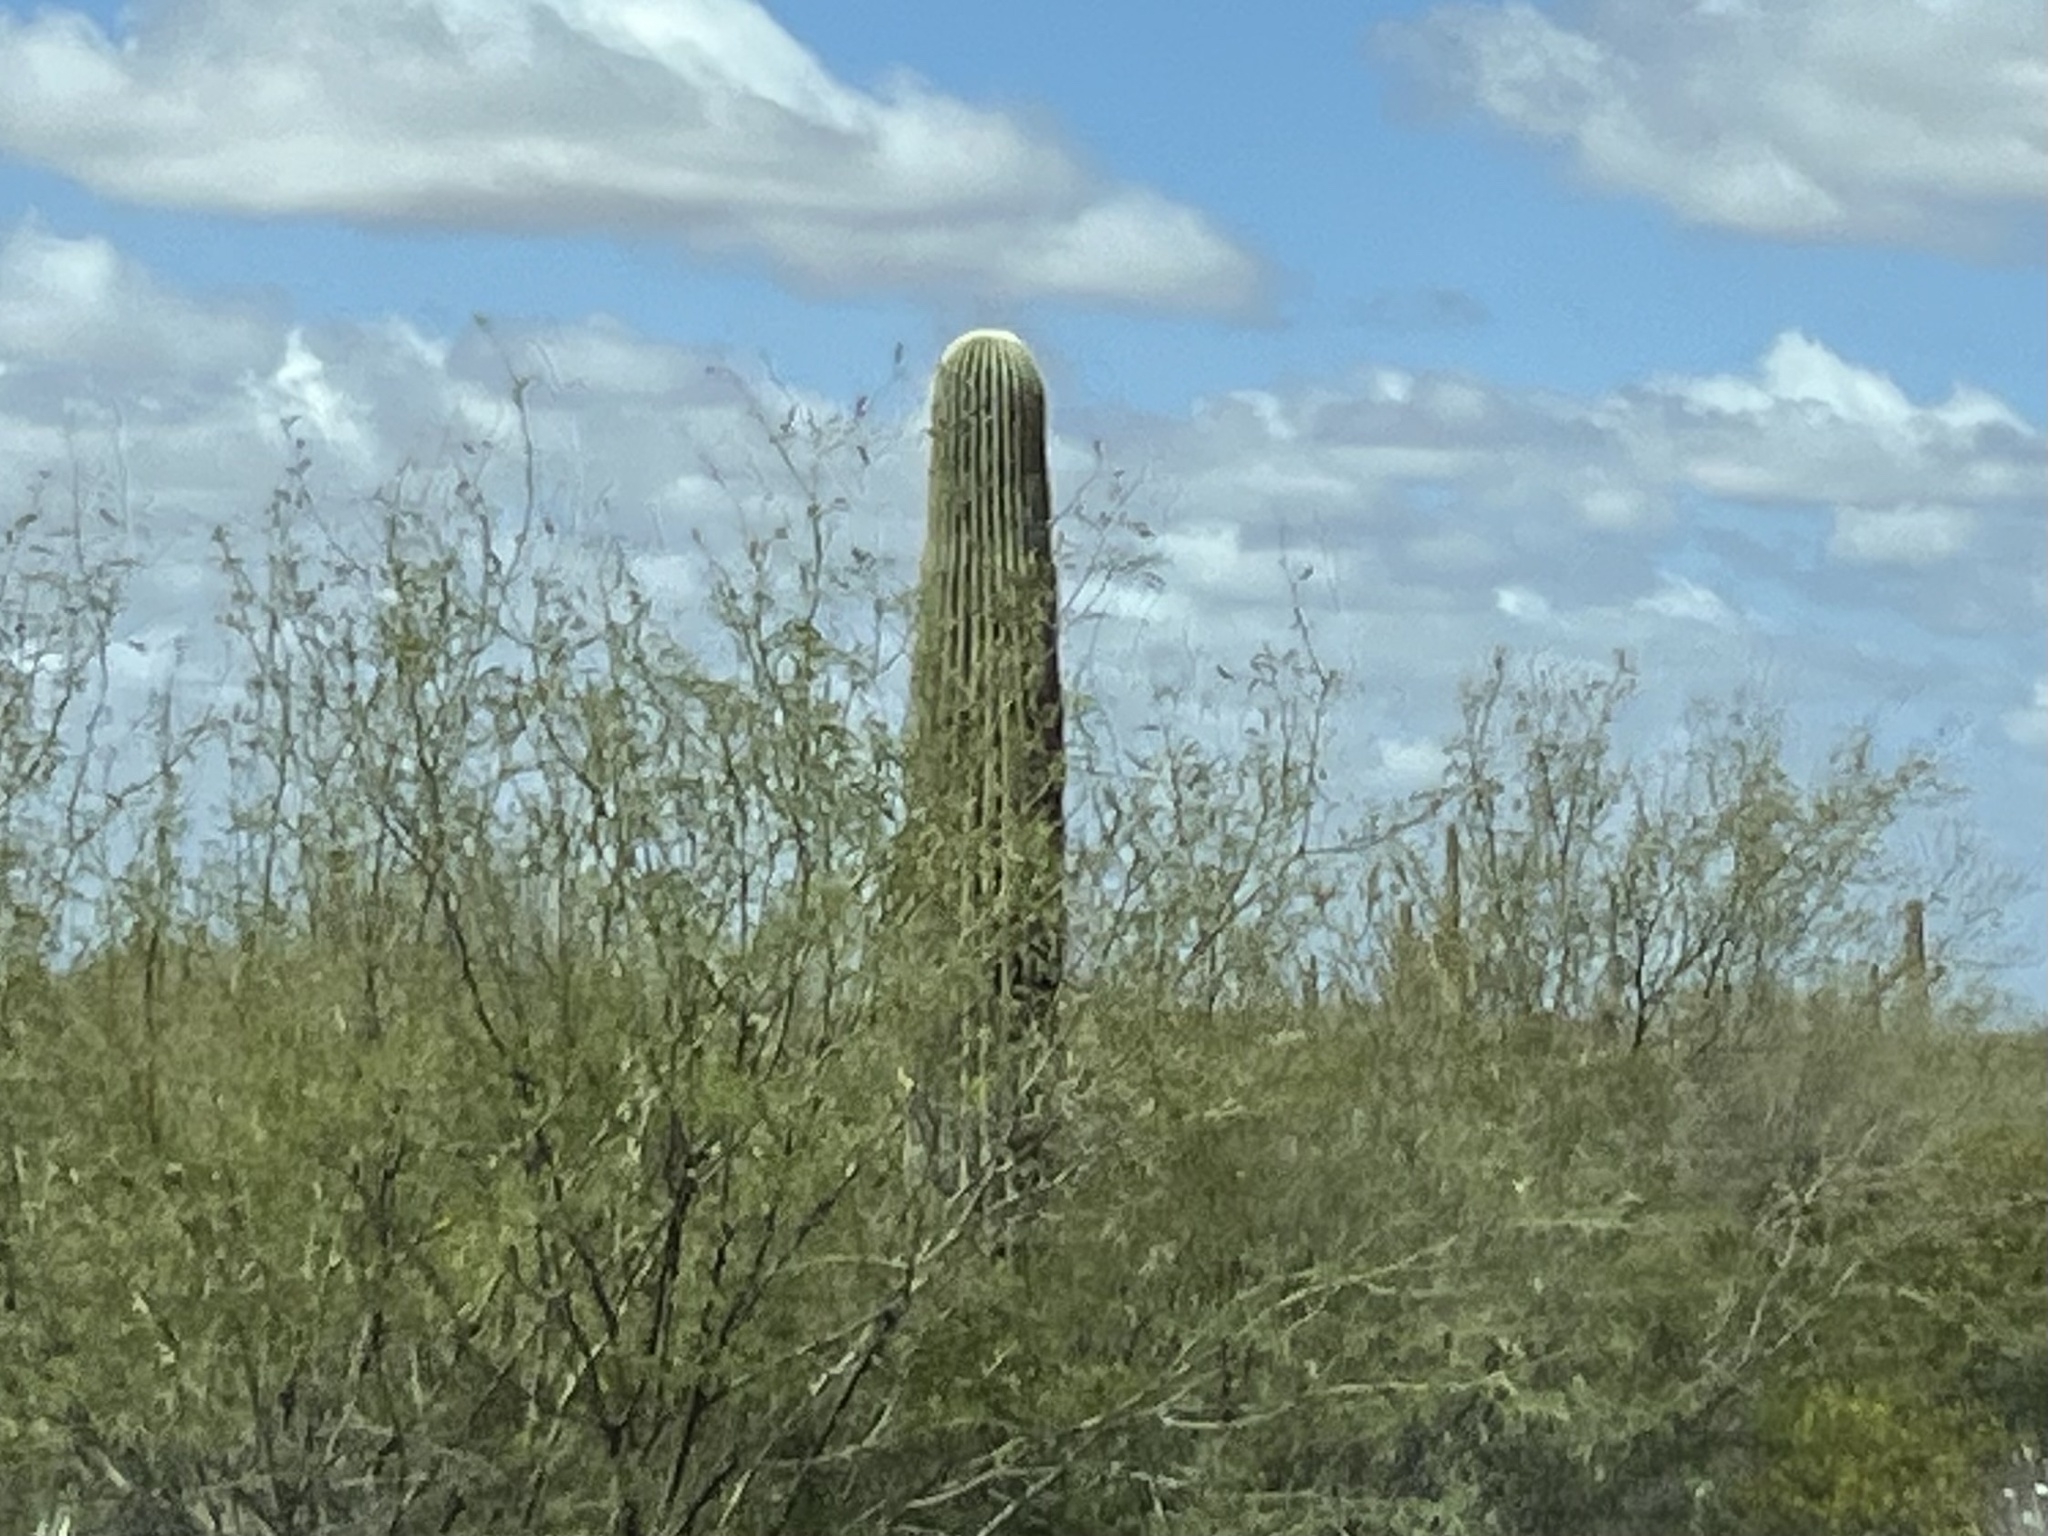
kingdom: Plantae
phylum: Tracheophyta
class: Magnoliopsida
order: Caryophyllales
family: Cactaceae
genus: Carnegiea
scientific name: Carnegiea gigantea
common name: Saguaro
